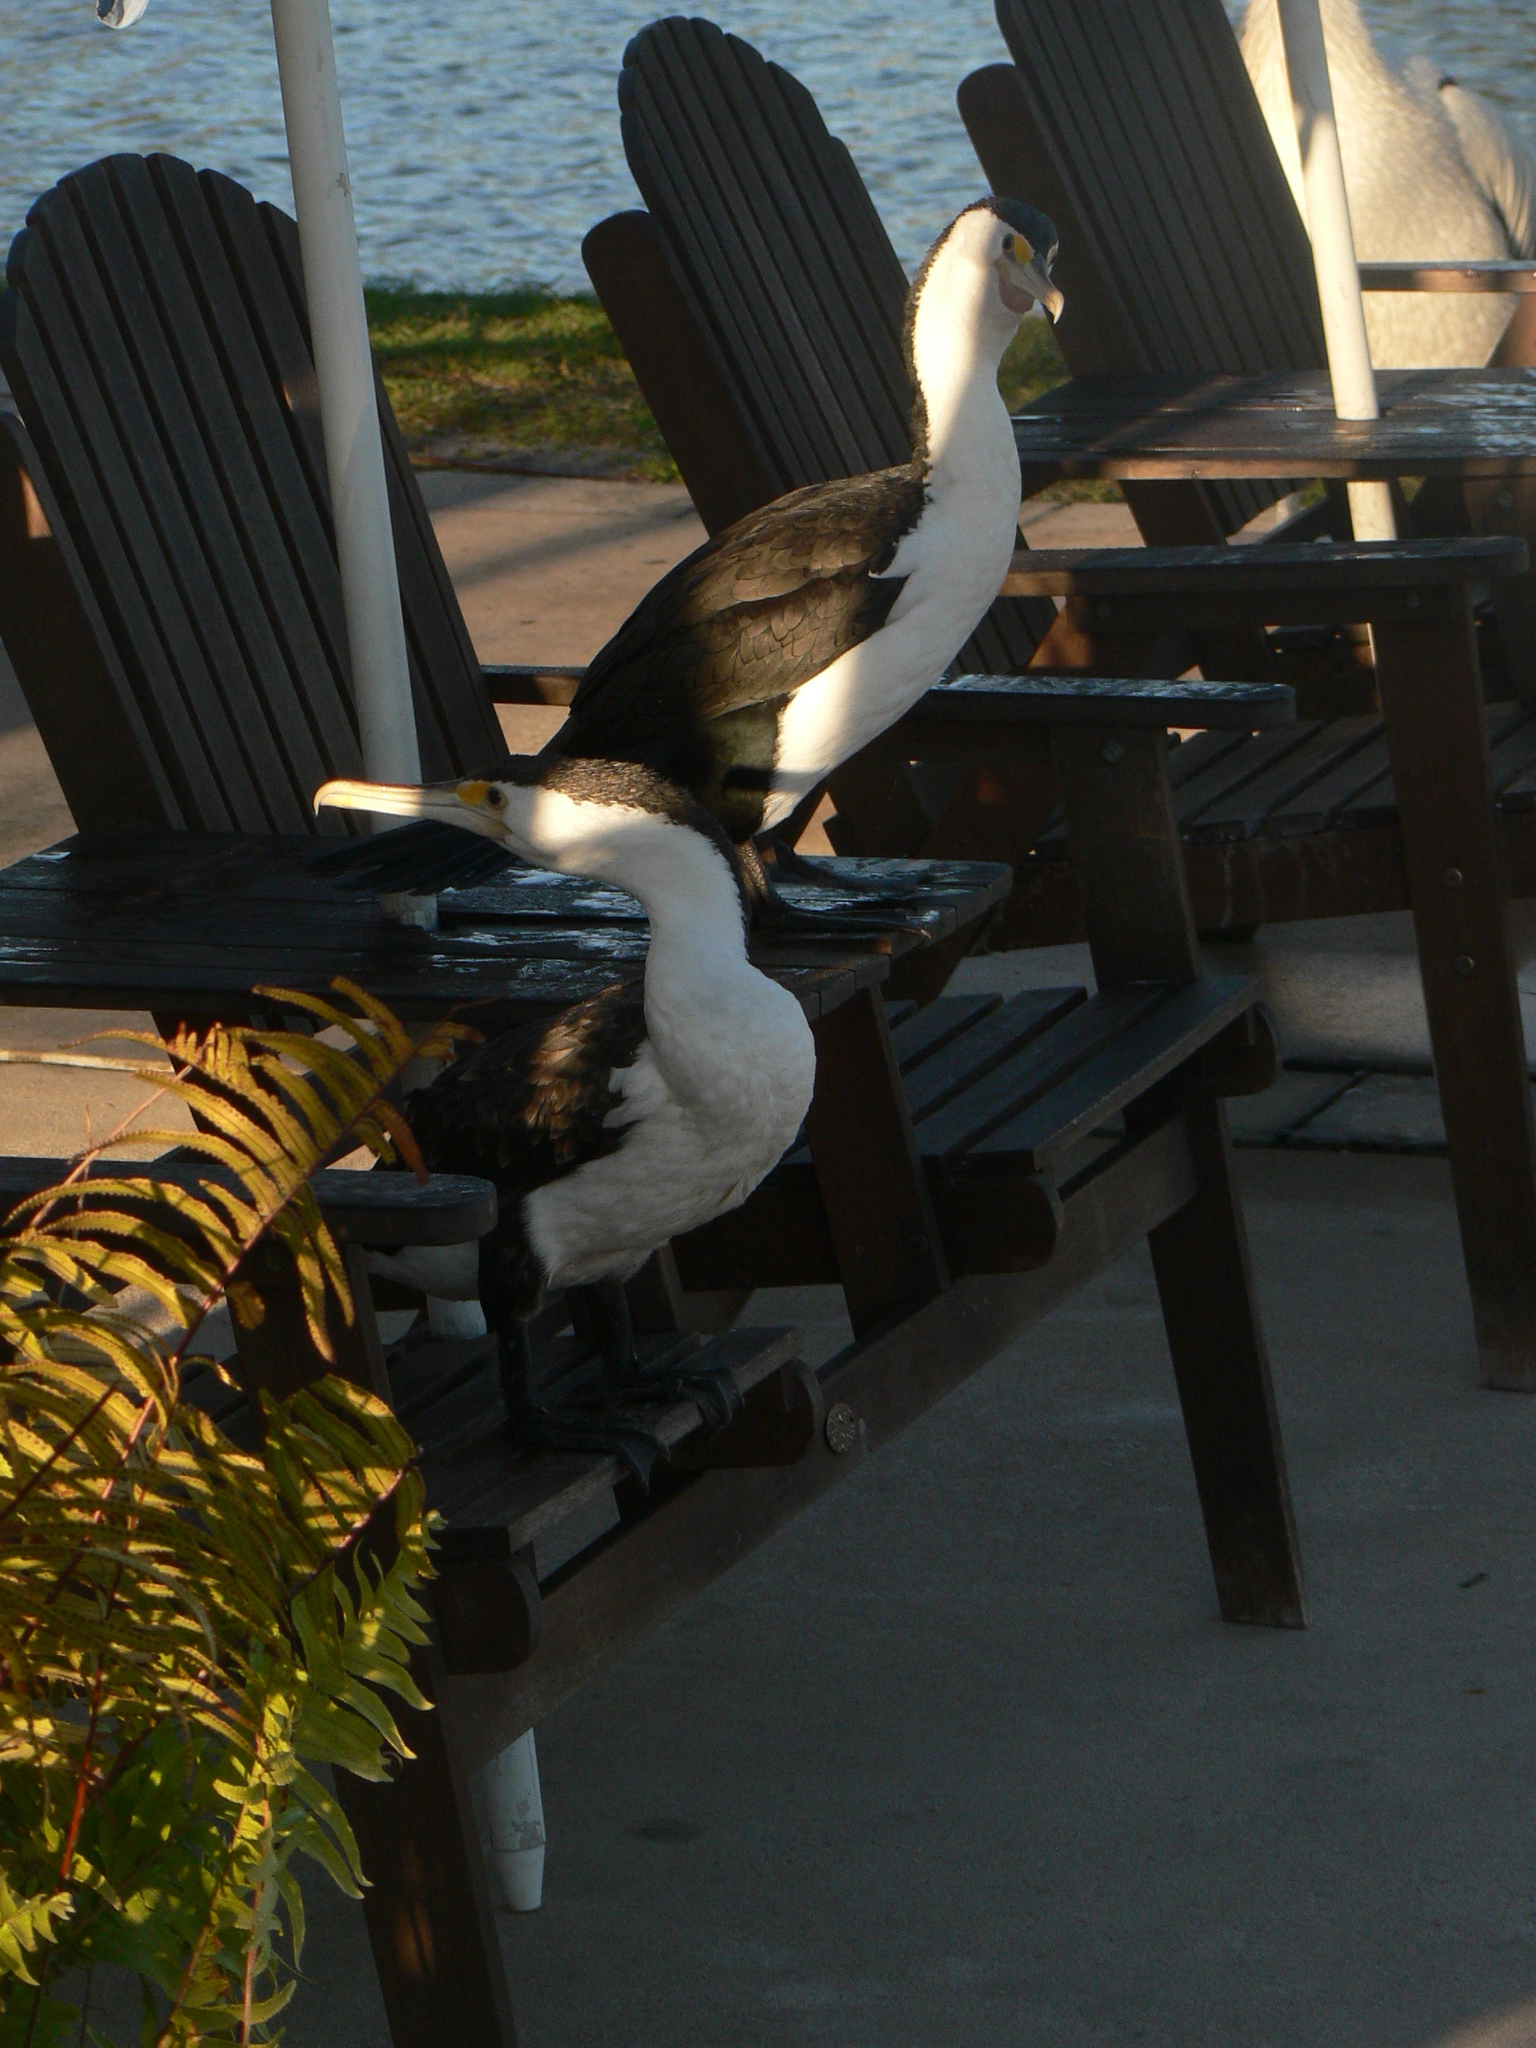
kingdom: Animalia
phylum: Chordata
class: Aves
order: Suliformes
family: Phalacrocoracidae
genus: Phalacrocorax
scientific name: Phalacrocorax varius
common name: Pied cormorant
